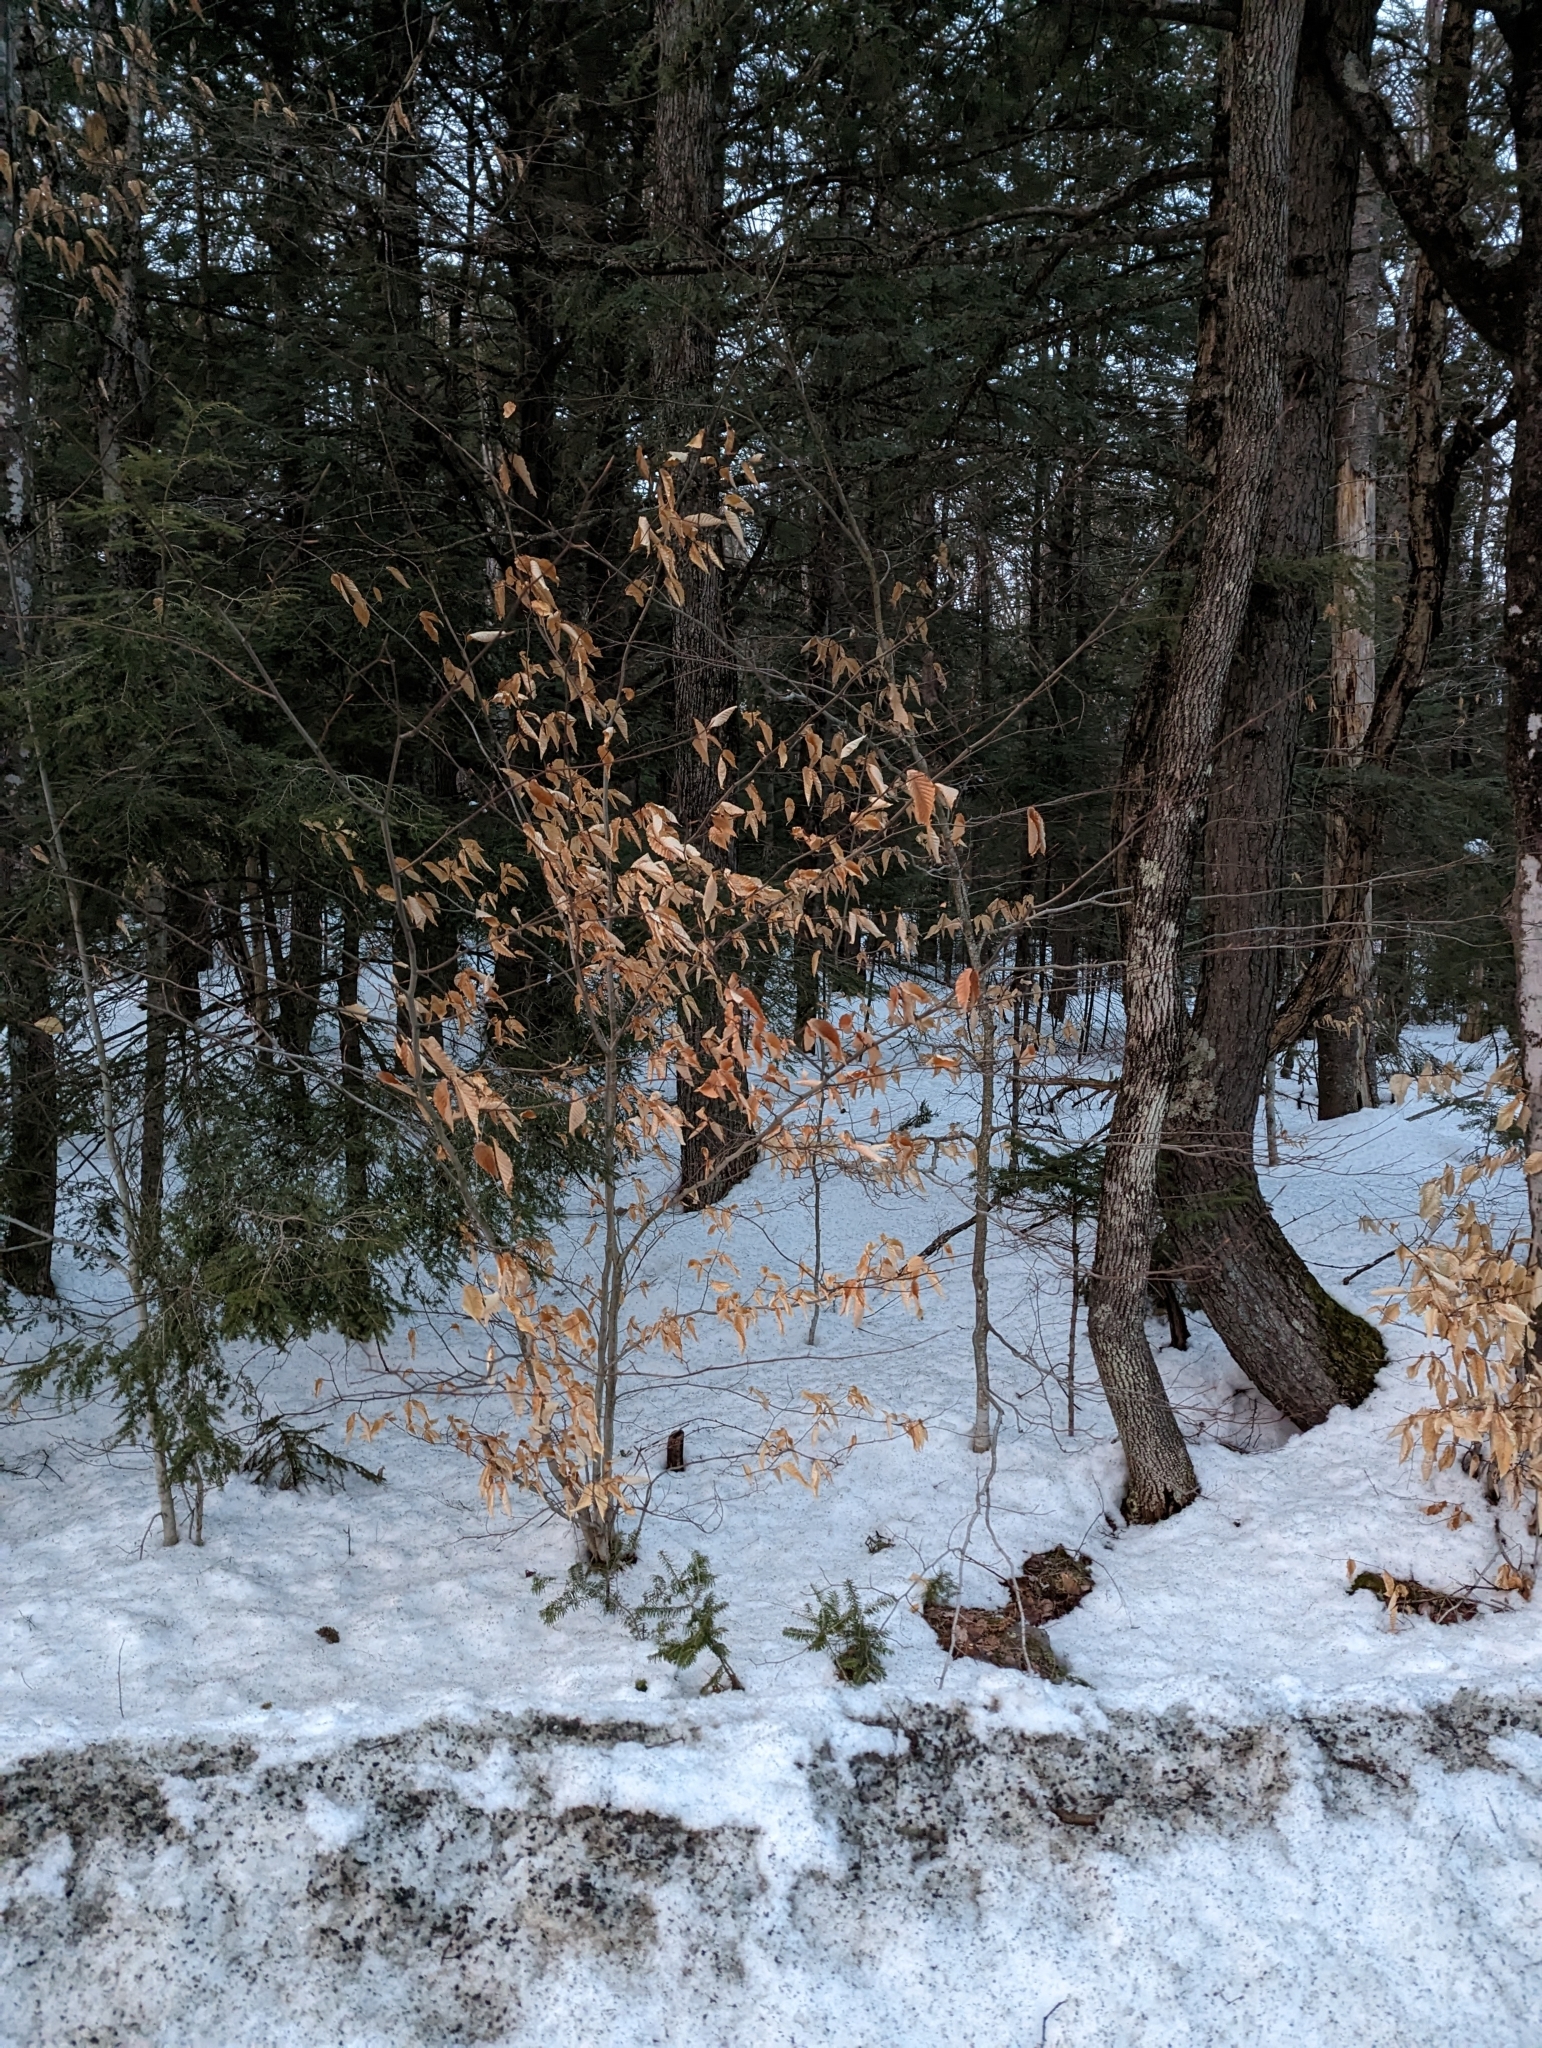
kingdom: Plantae
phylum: Tracheophyta
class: Magnoliopsida
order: Fagales
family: Fagaceae
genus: Fagus
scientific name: Fagus grandifolia
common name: American beech
